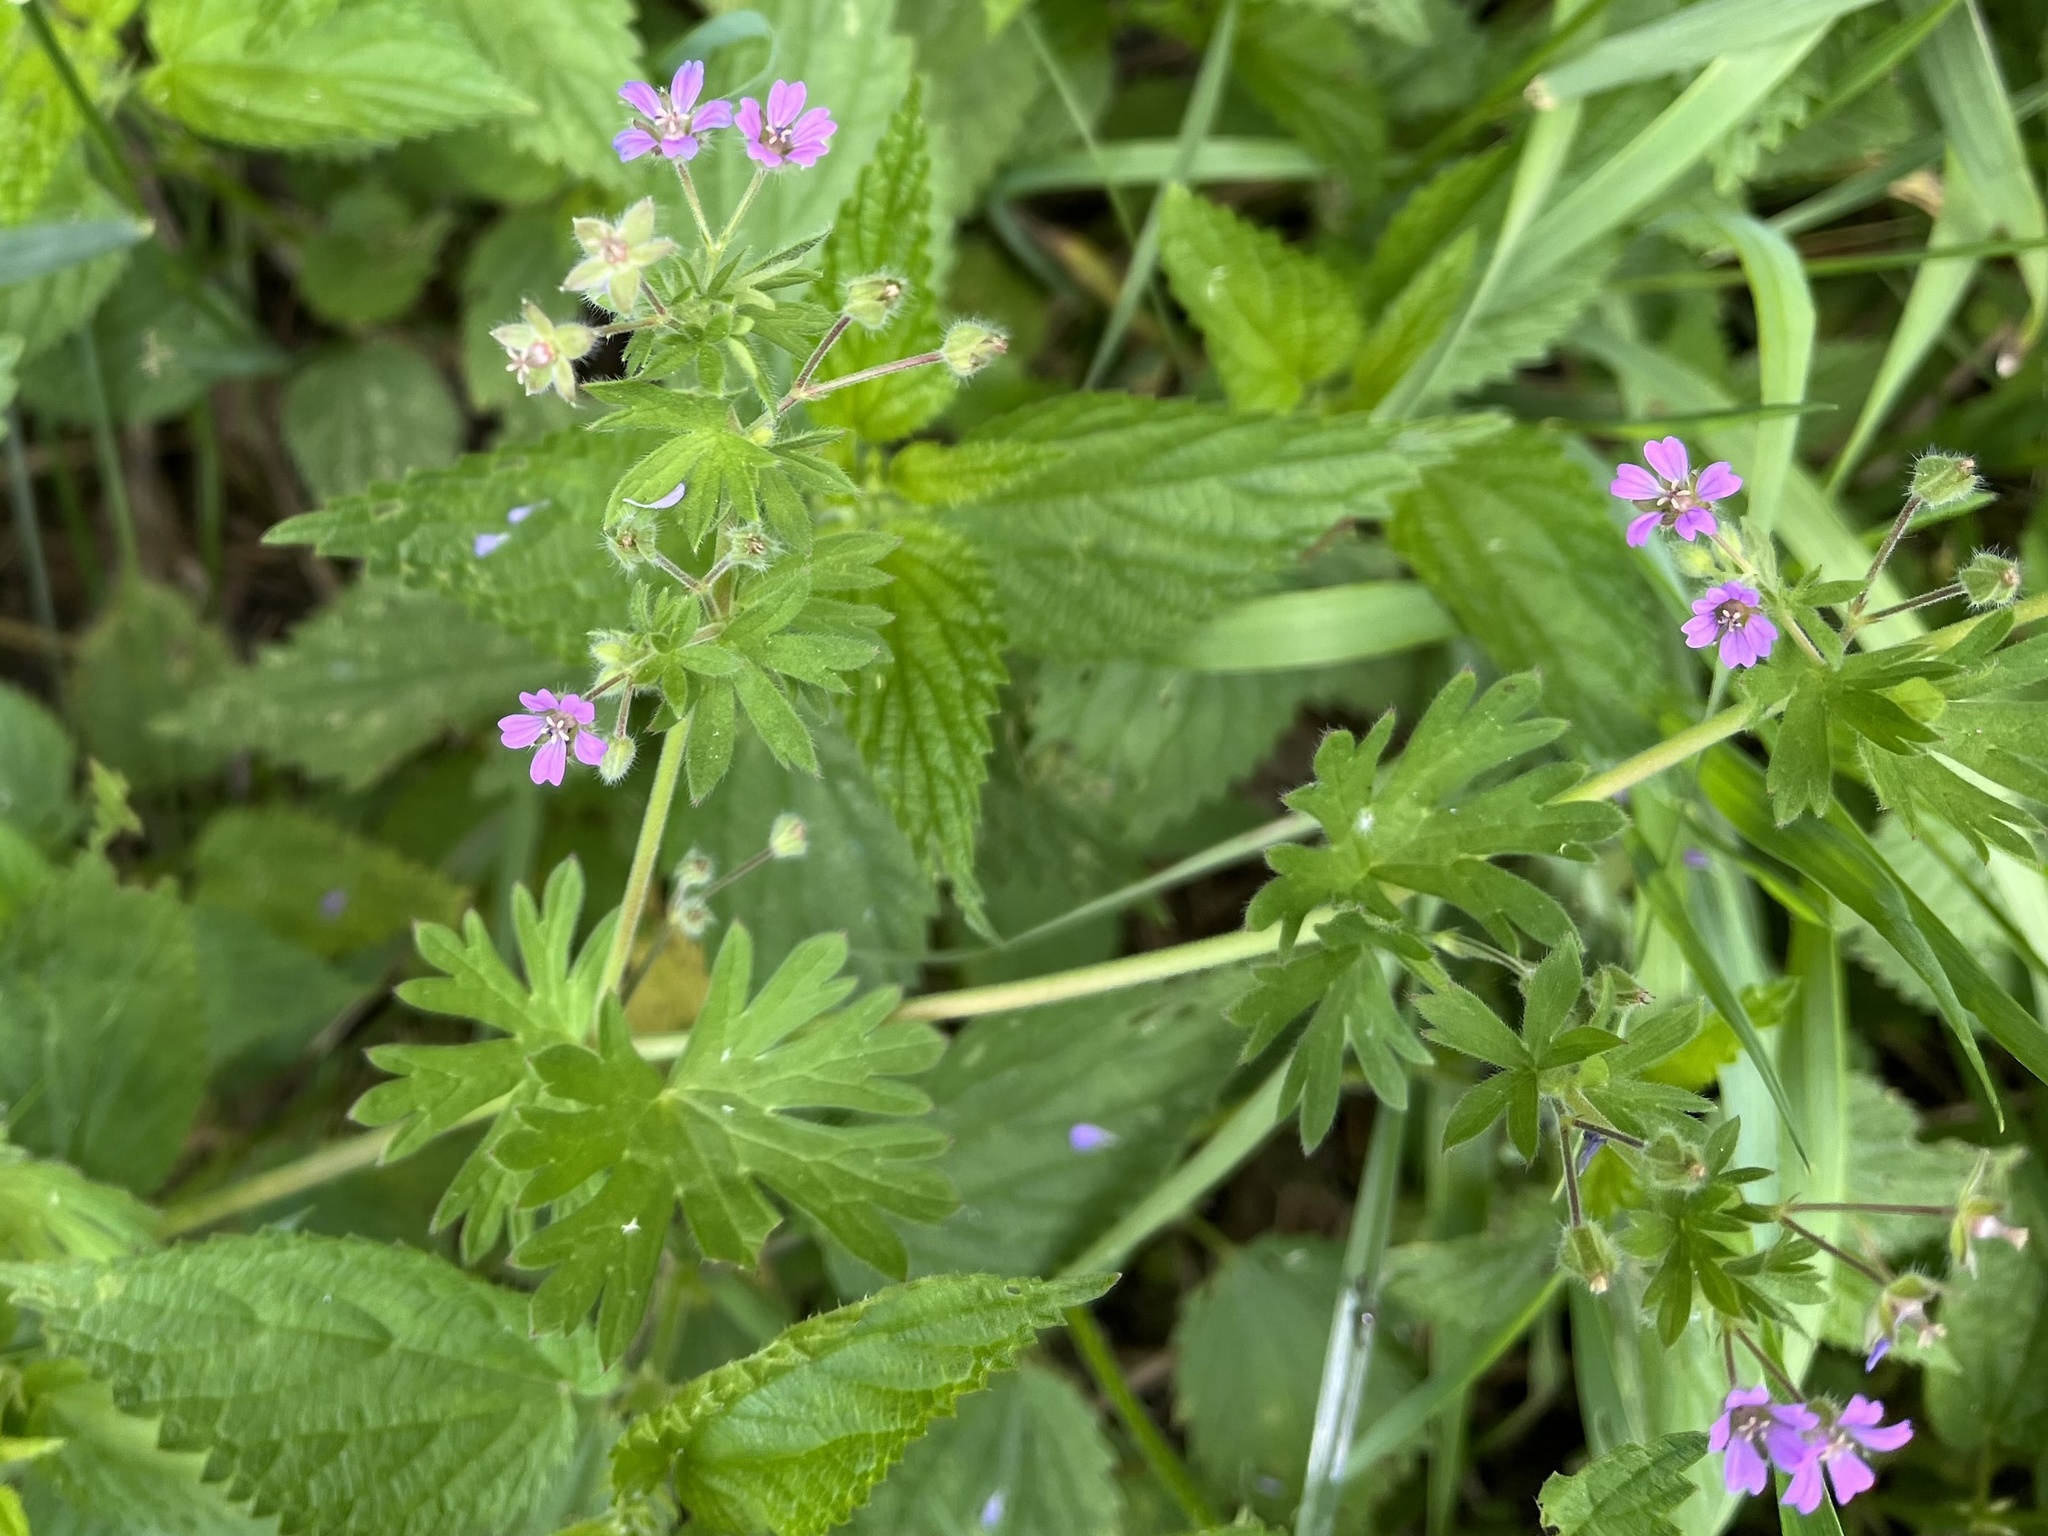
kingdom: Plantae
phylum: Tracheophyta
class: Magnoliopsida
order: Geraniales
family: Geraniaceae
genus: Geranium
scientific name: Geranium pusillum
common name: Small geranium
